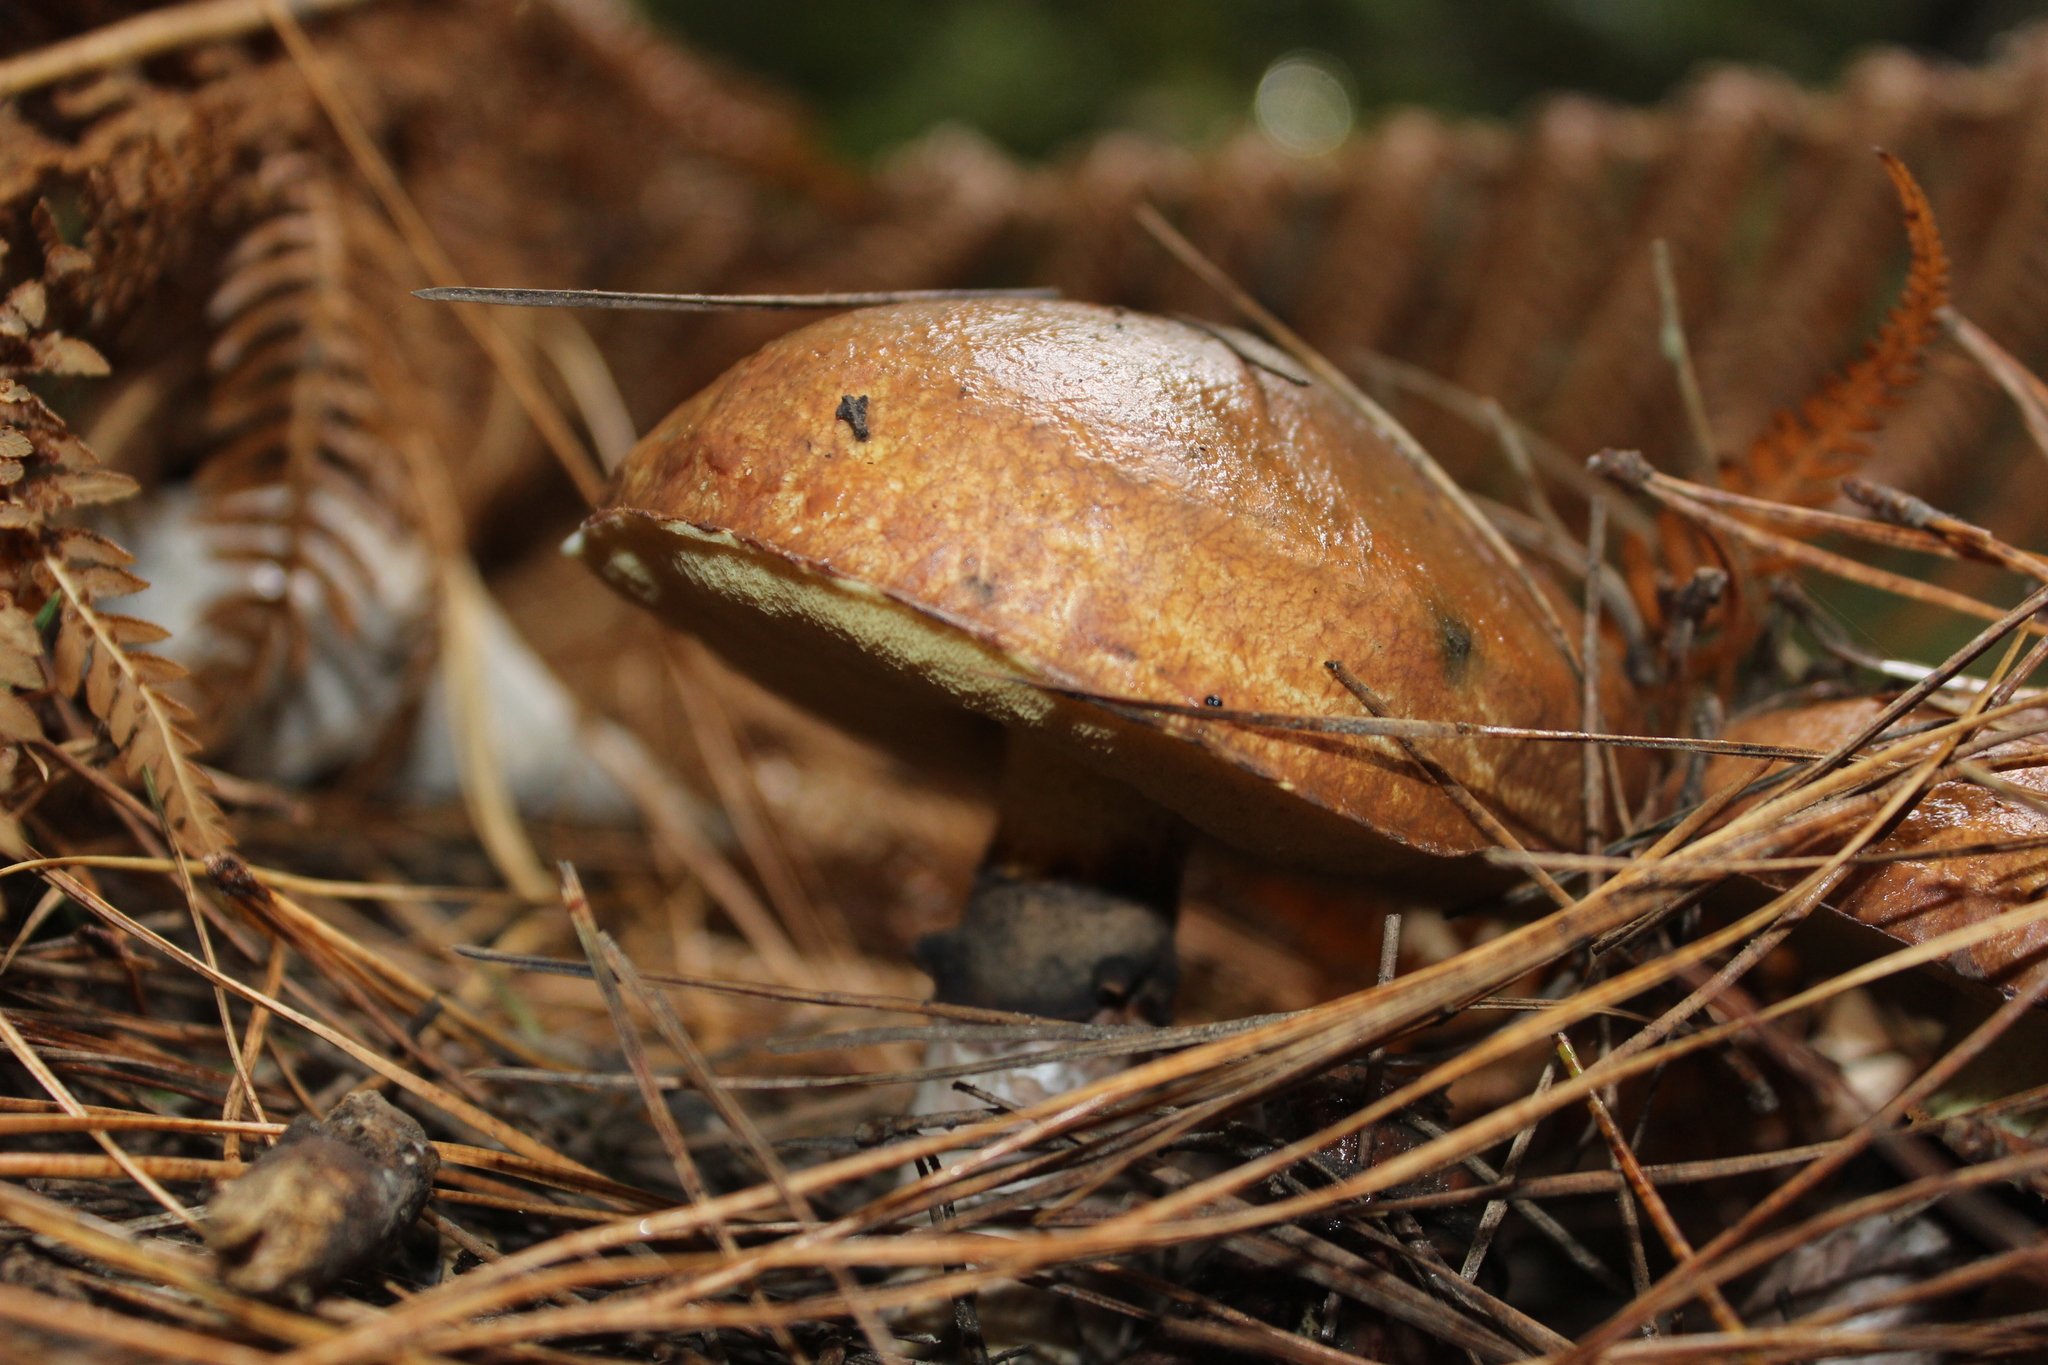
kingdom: Fungi
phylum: Basidiomycota
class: Agaricomycetes
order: Boletales
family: Suillaceae
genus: Suillus
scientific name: Suillus luteus
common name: Slippery jack
